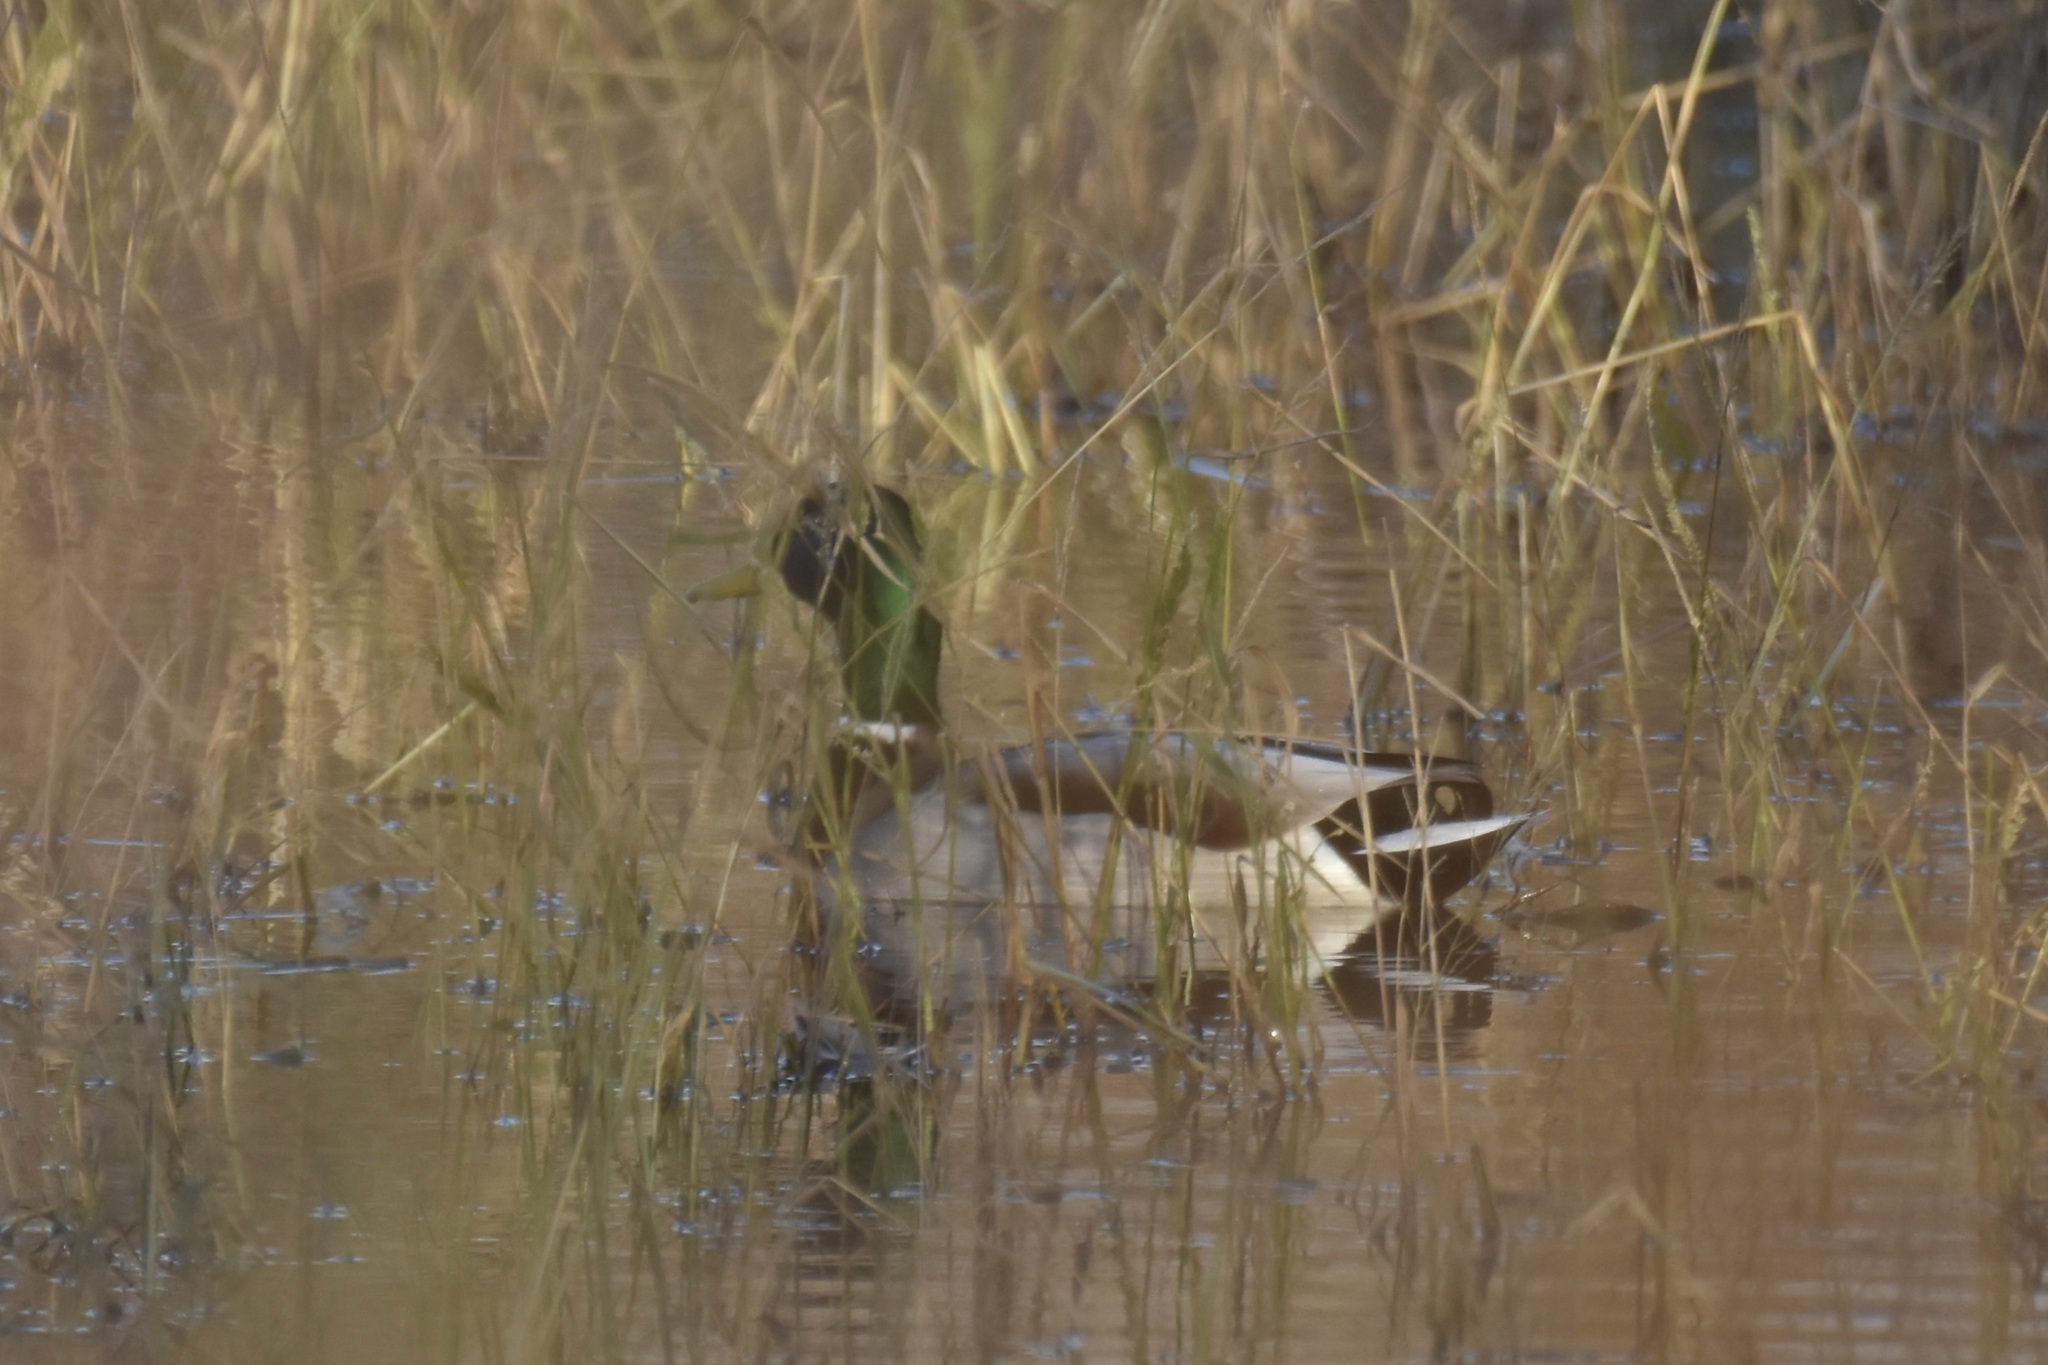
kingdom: Animalia
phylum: Chordata
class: Aves
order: Anseriformes
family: Anatidae
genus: Anas
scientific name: Anas platyrhynchos
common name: Mallard
